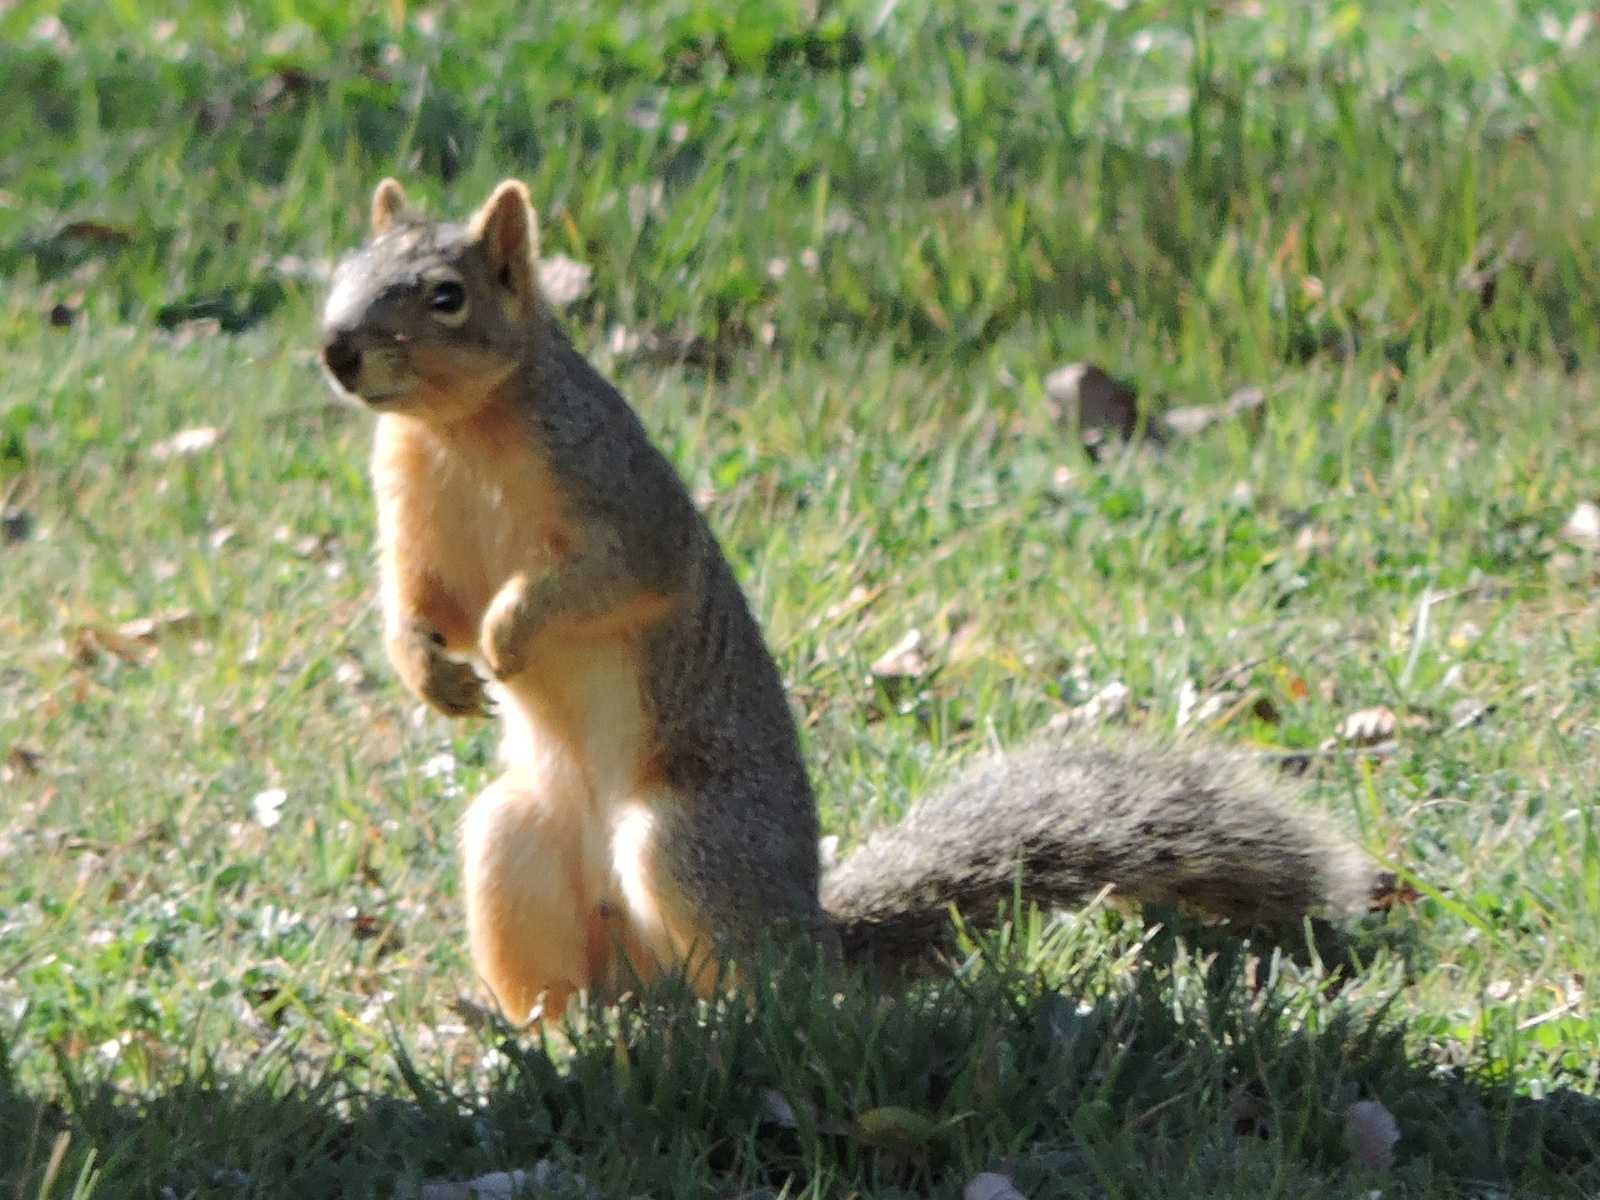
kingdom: Animalia
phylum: Chordata
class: Mammalia
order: Rodentia
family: Sciuridae
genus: Sciurus
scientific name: Sciurus niger
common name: Fox squirrel
